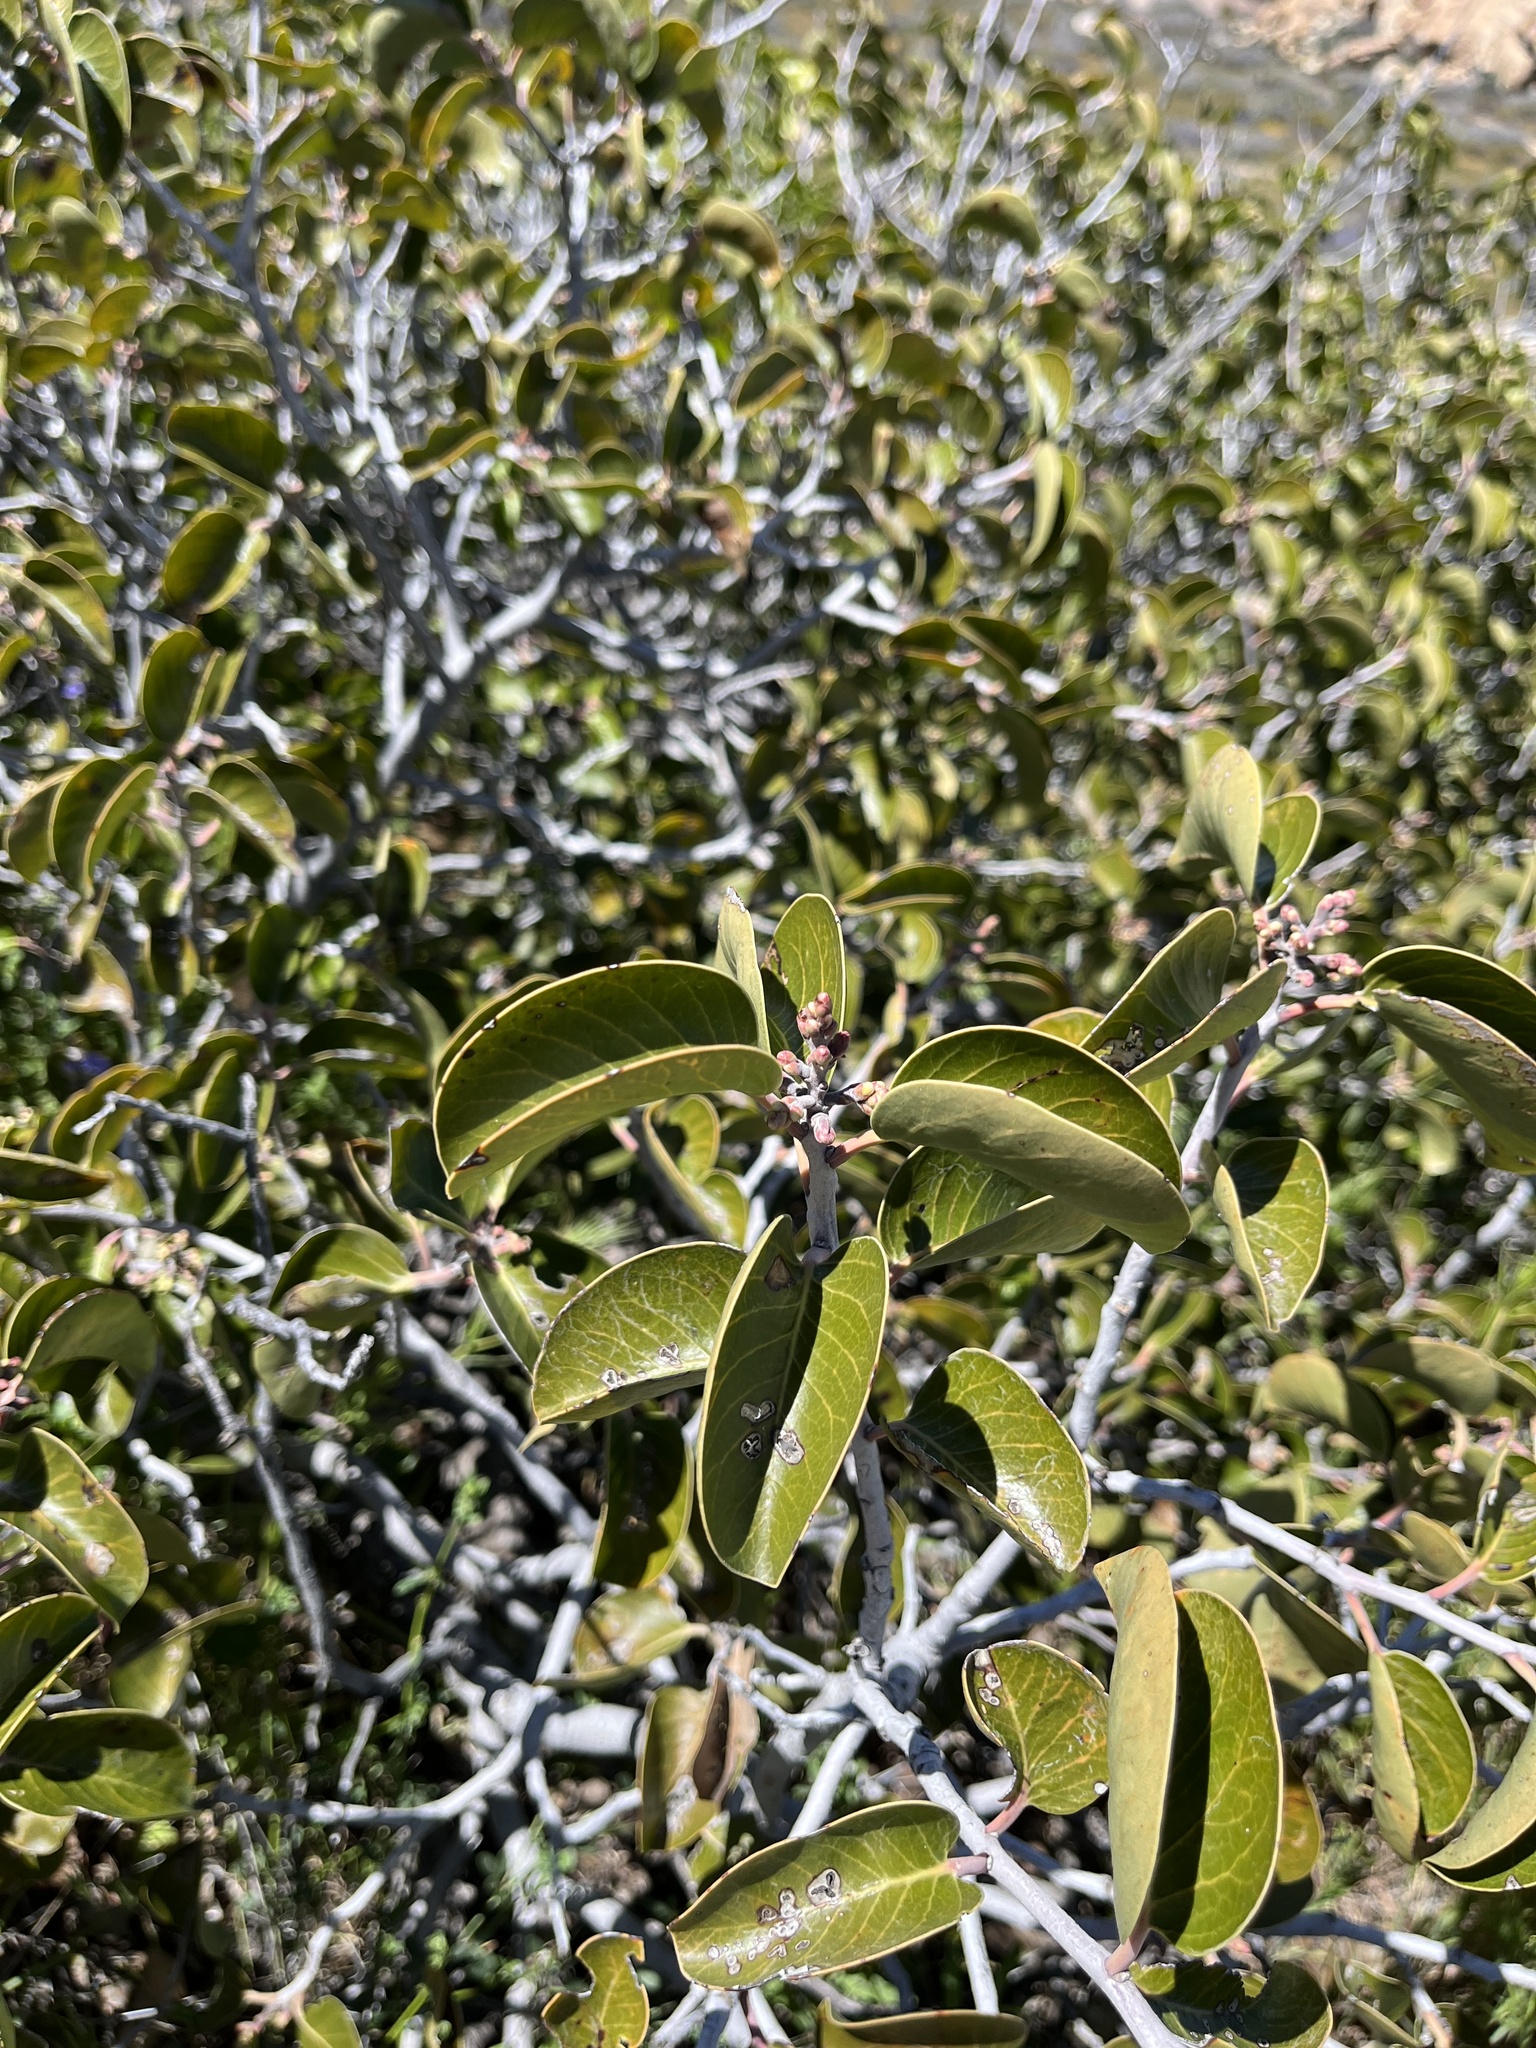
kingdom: Plantae
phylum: Tracheophyta
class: Magnoliopsida
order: Sapindales
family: Anacardiaceae
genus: Rhus
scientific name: Rhus ovata
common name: Sugar sumac
